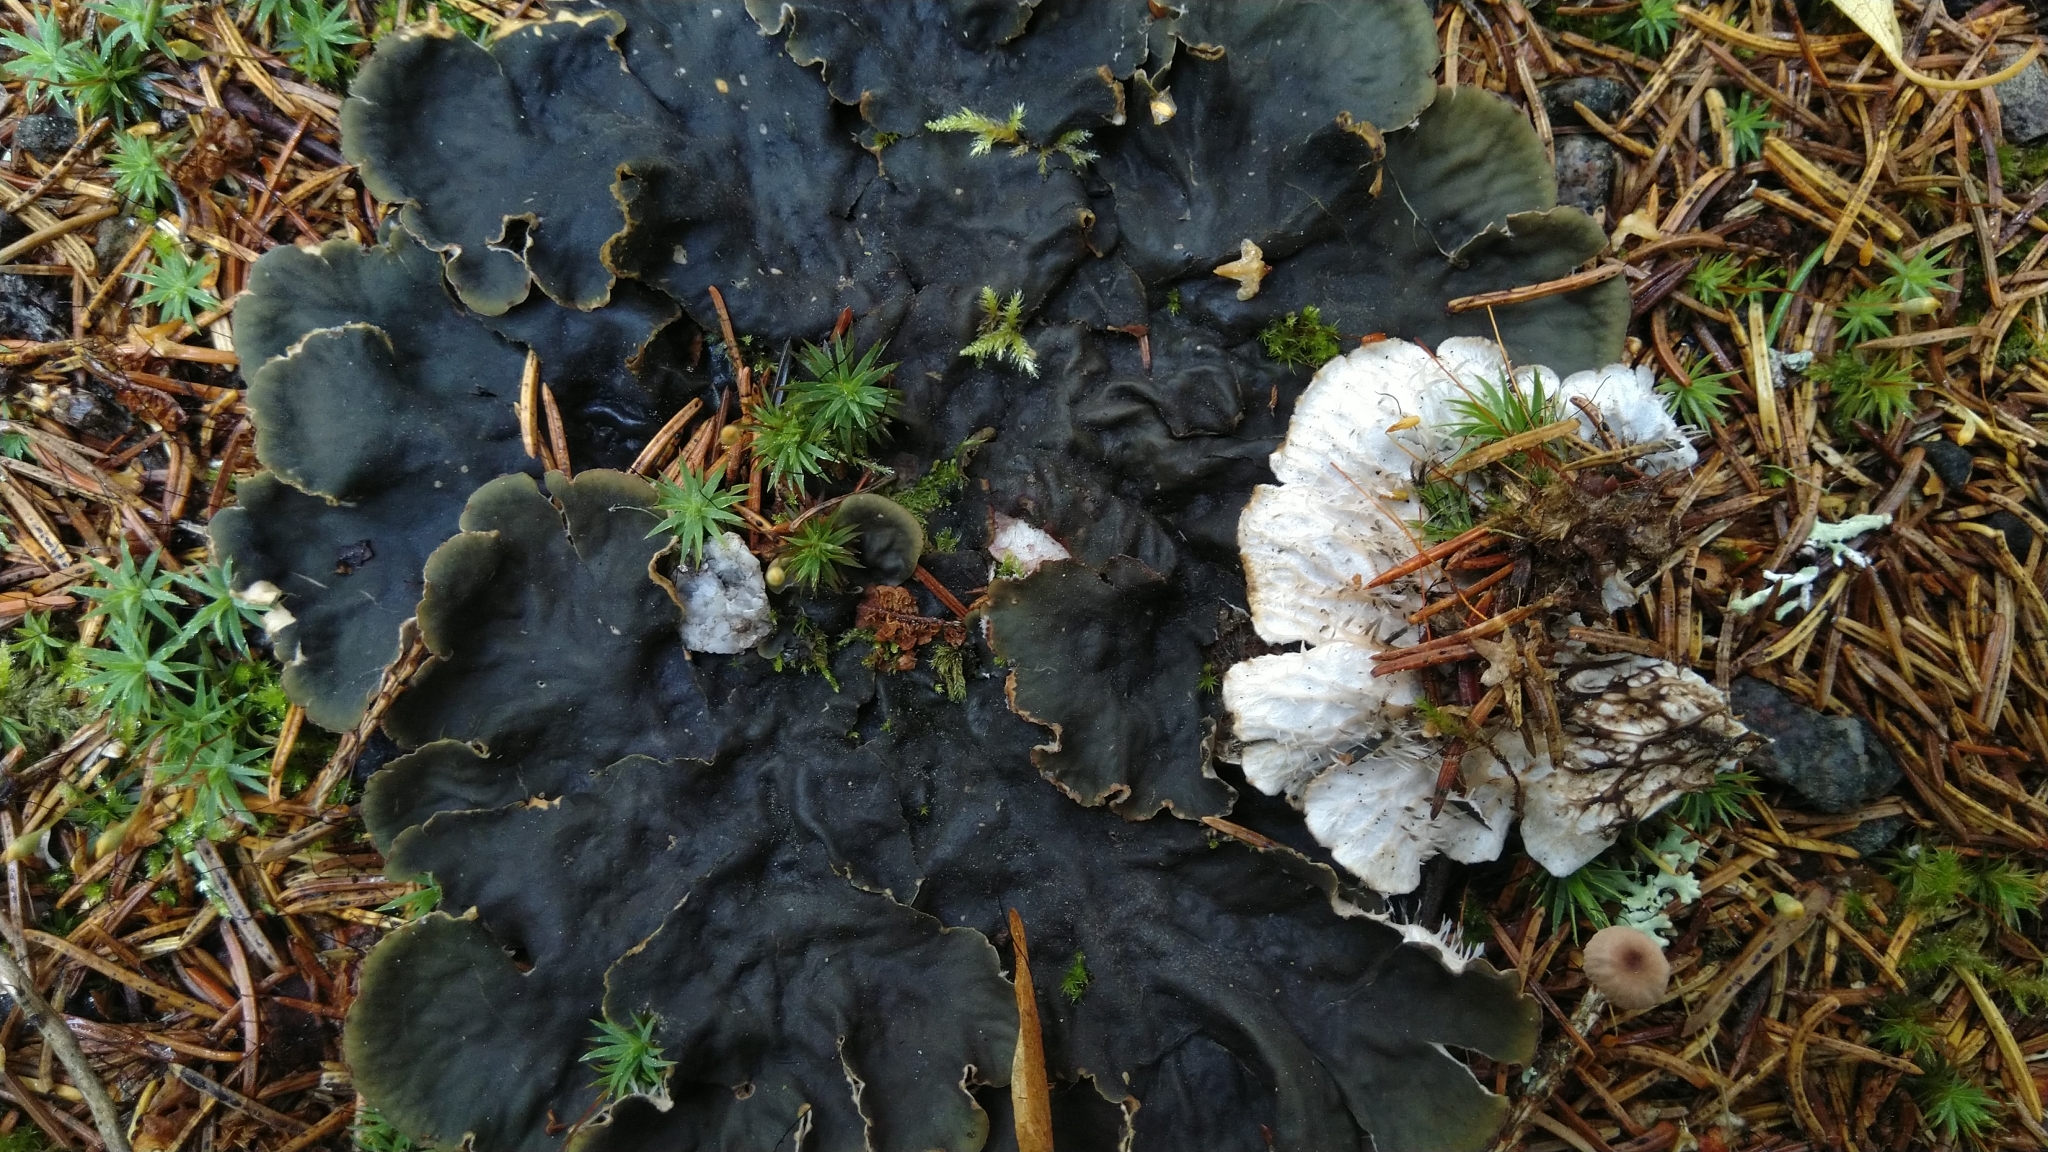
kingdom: Fungi
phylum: Ascomycota
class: Lecanoromycetes
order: Peltigerales
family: Peltigeraceae
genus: Peltigera
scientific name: Peltigera praetextata
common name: Scaly dog-lichen
